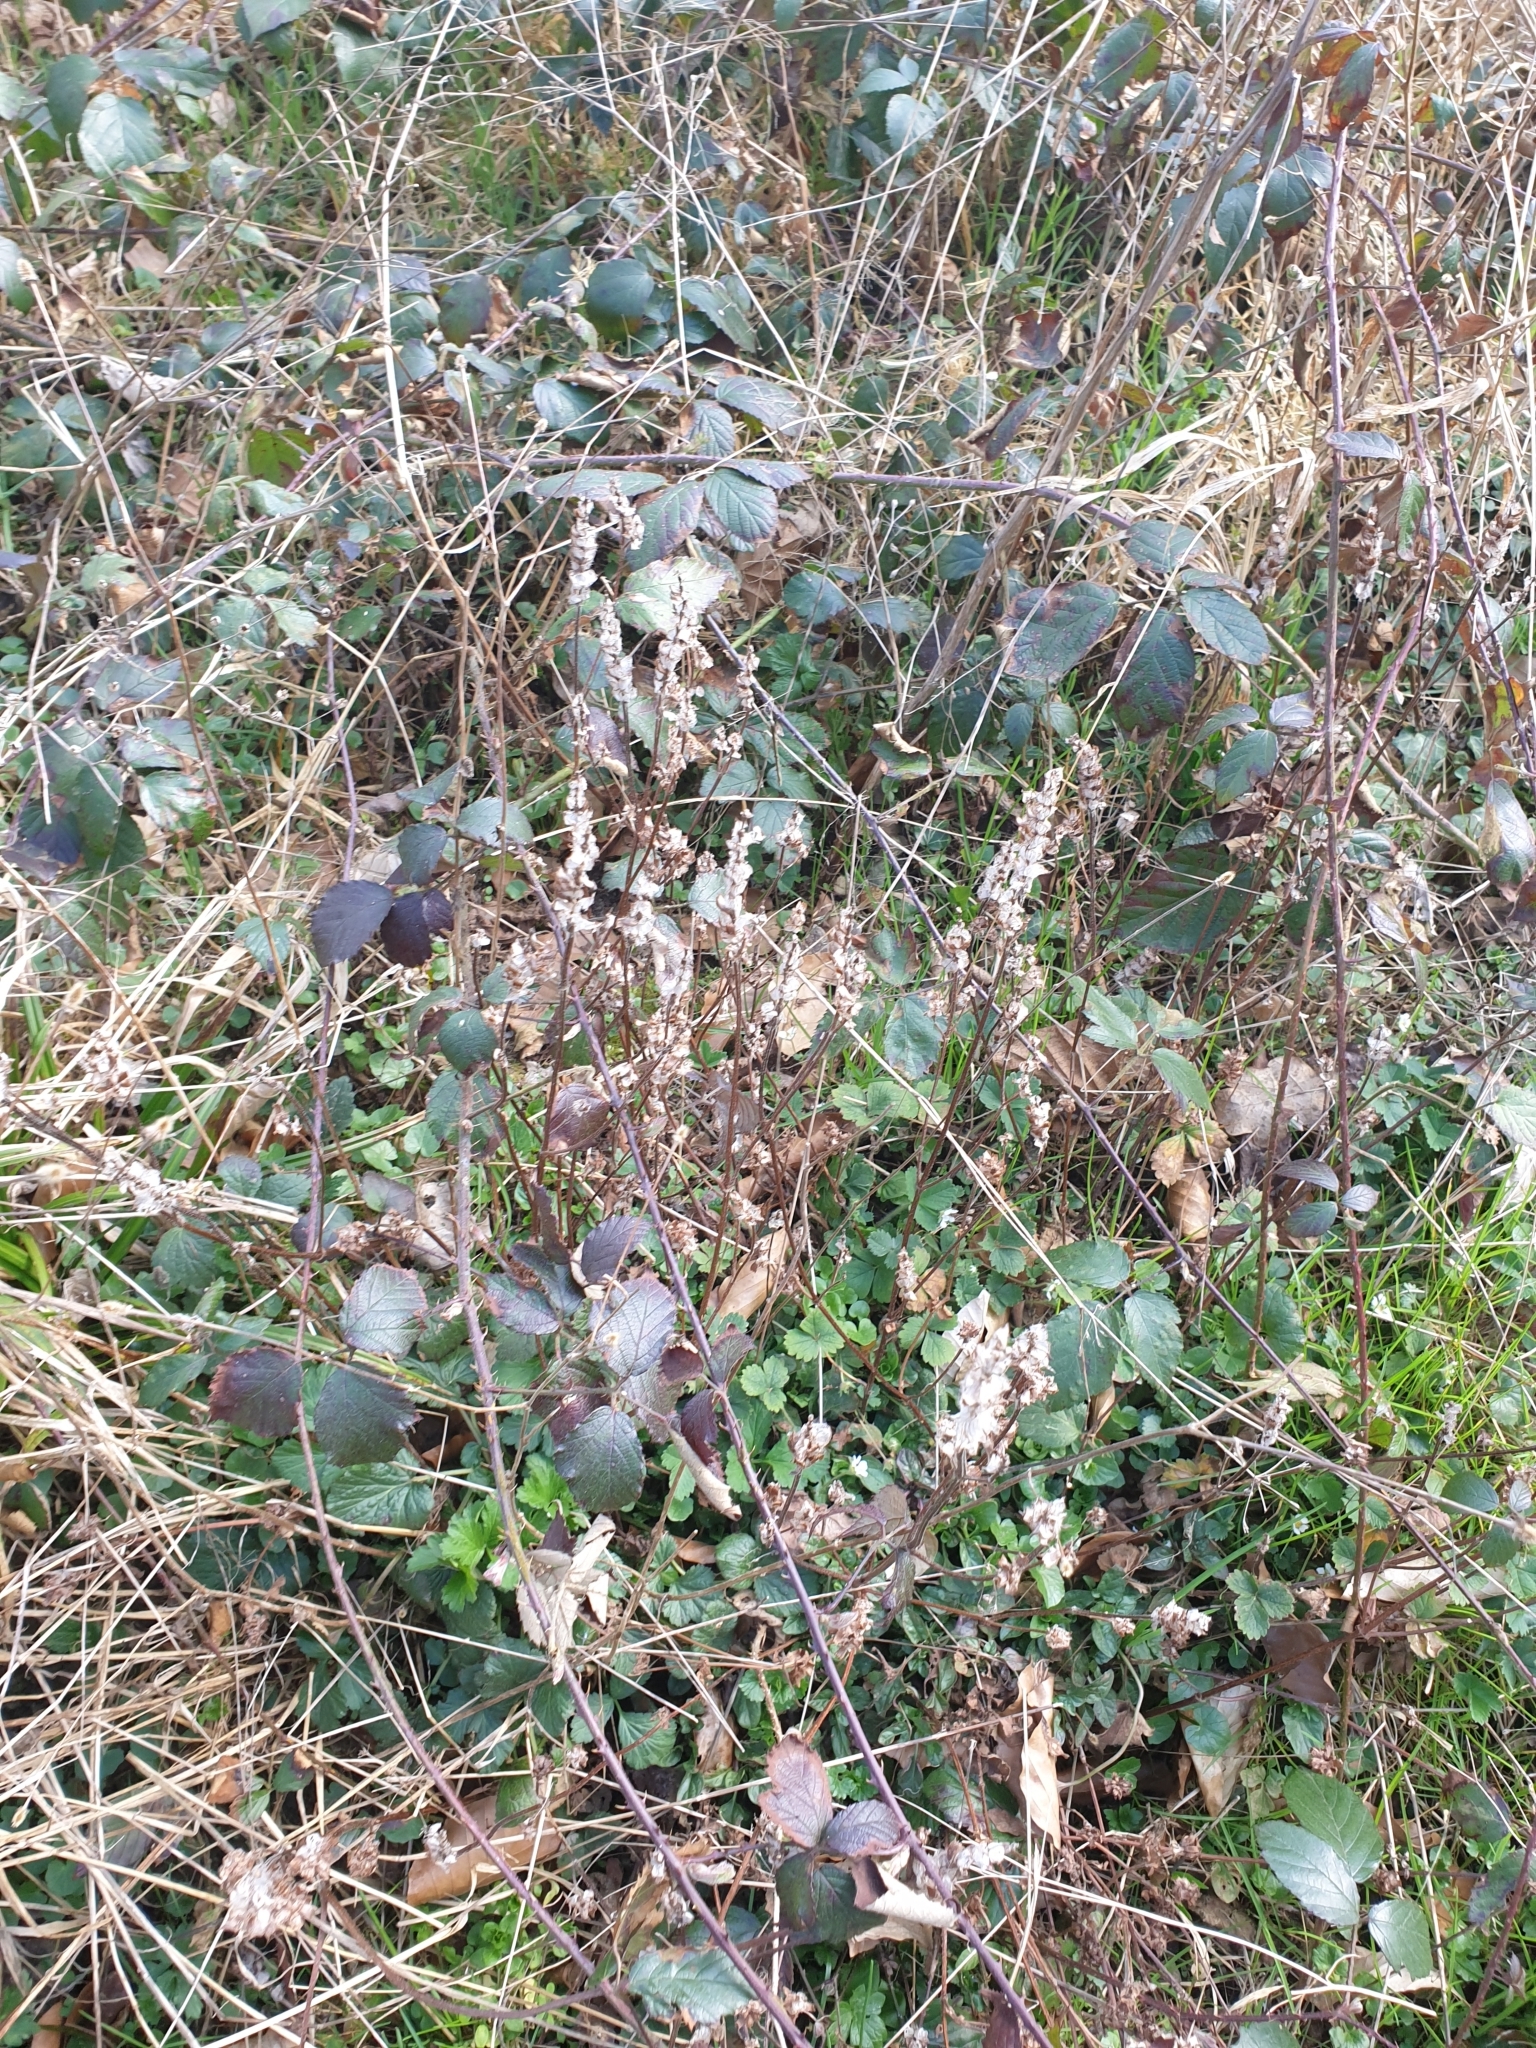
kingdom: Plantae
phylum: Tracheophyta
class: Magnoliopsida
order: Lamiales
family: Lamiaceae
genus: Teucrium
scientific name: Teucrium scorodonia
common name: Woodland germander
